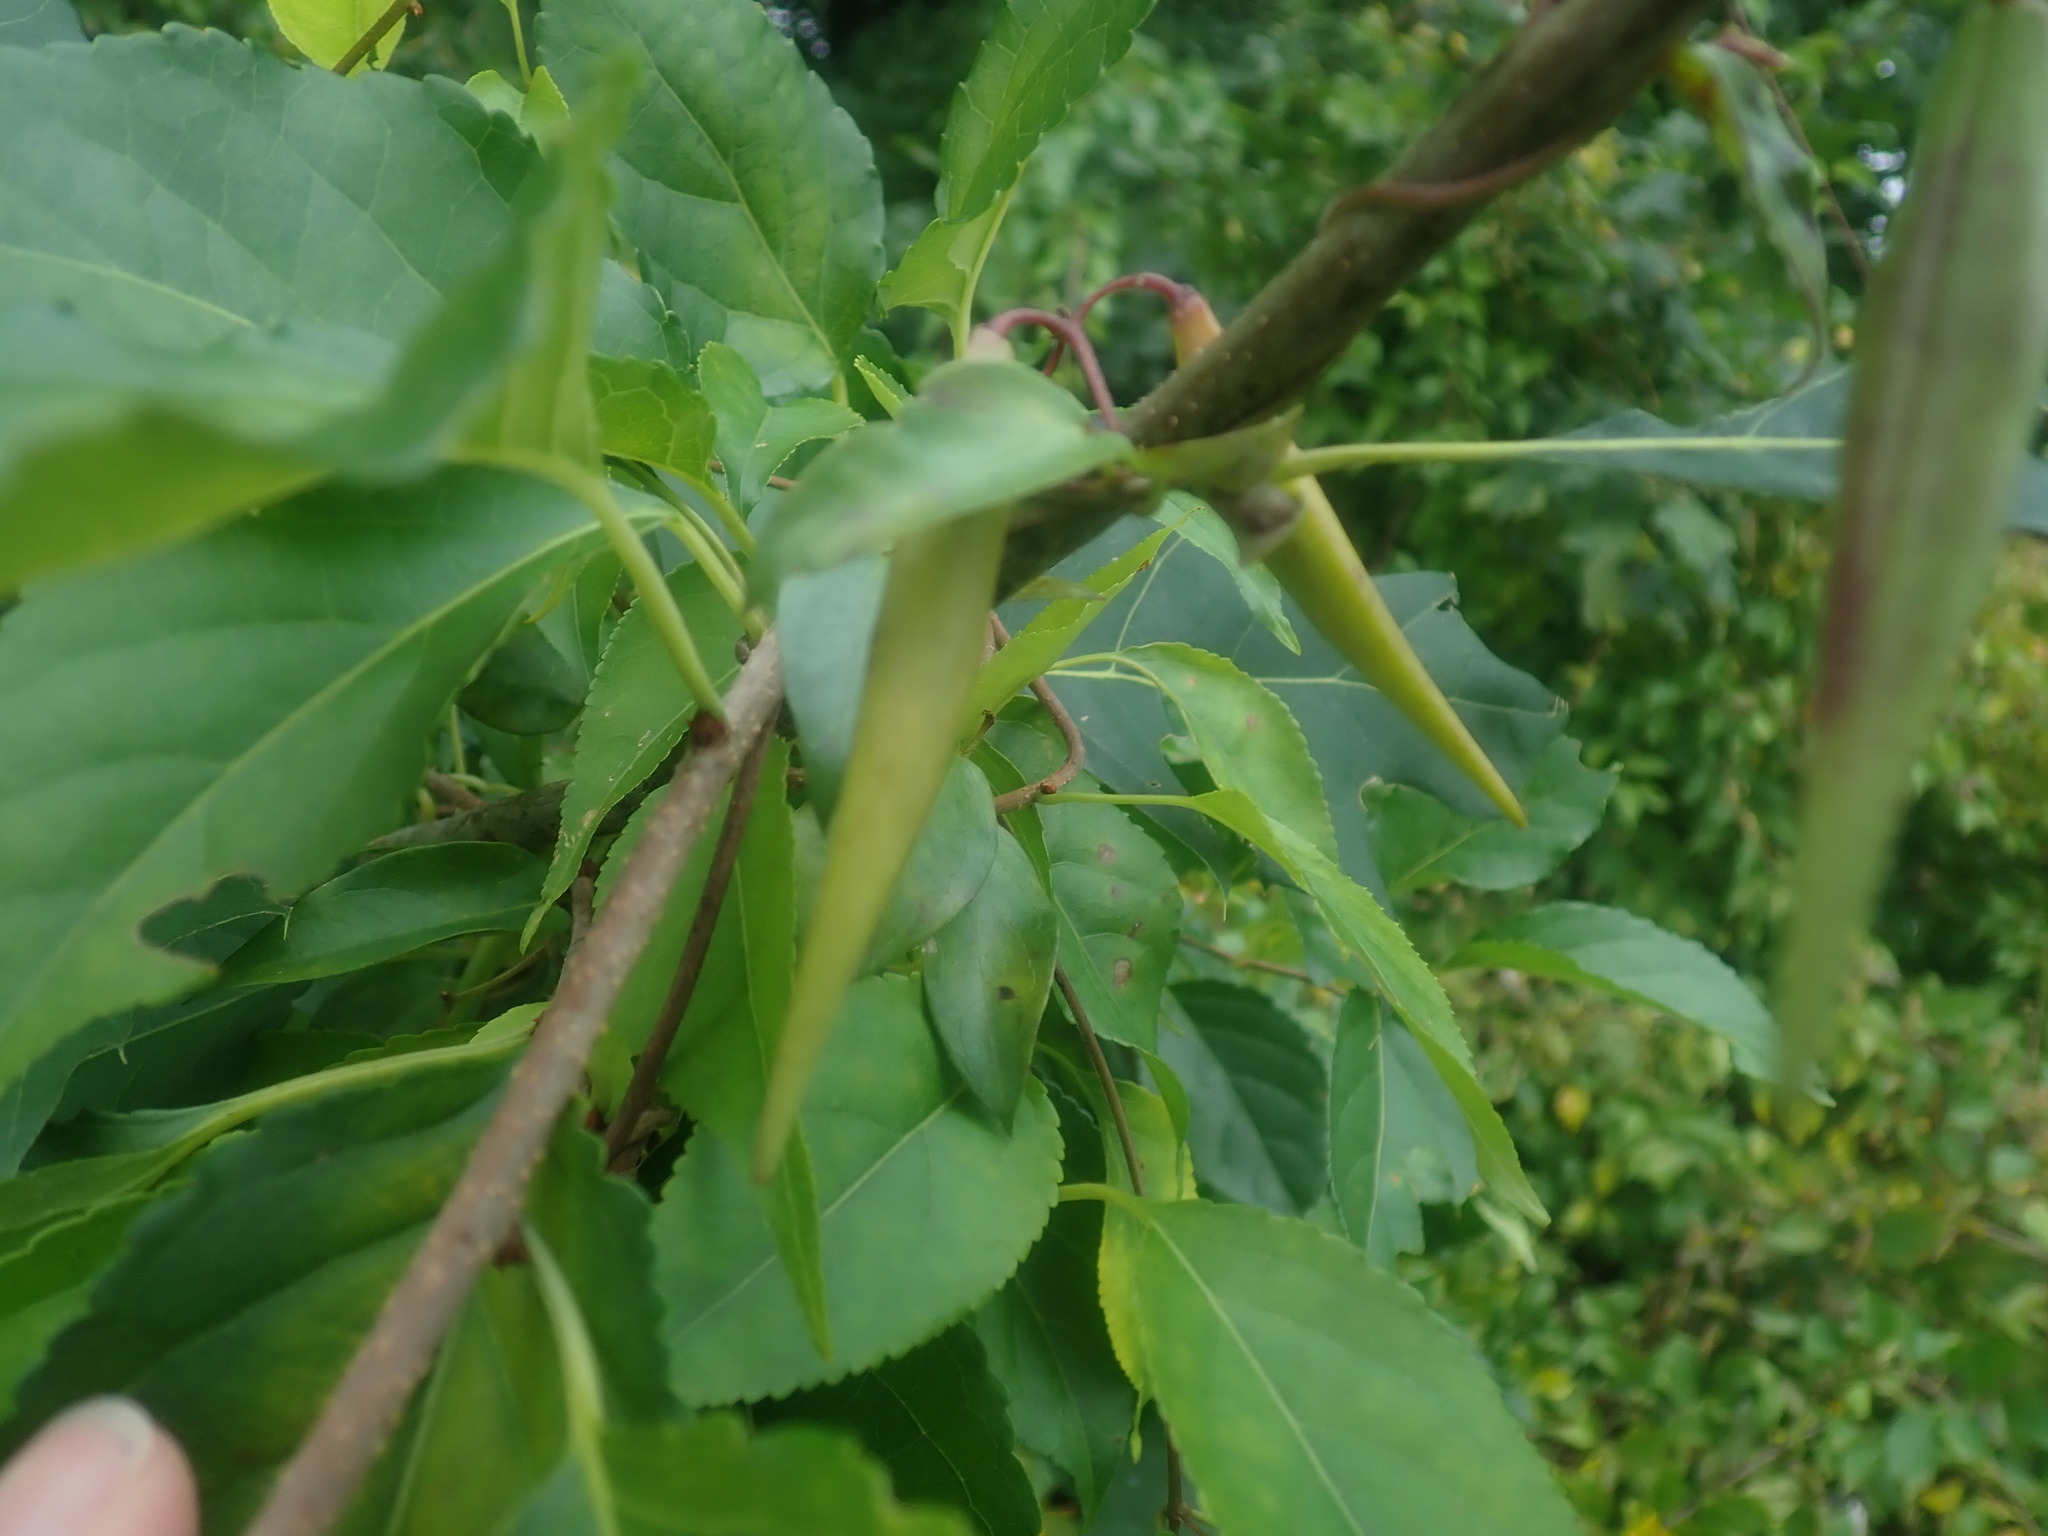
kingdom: Plantae
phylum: Tracheophyta
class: Magnoliopsida
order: Gentianales
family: Apocynaceae
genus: Vincetoxicum
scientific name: Vincetoxicum
